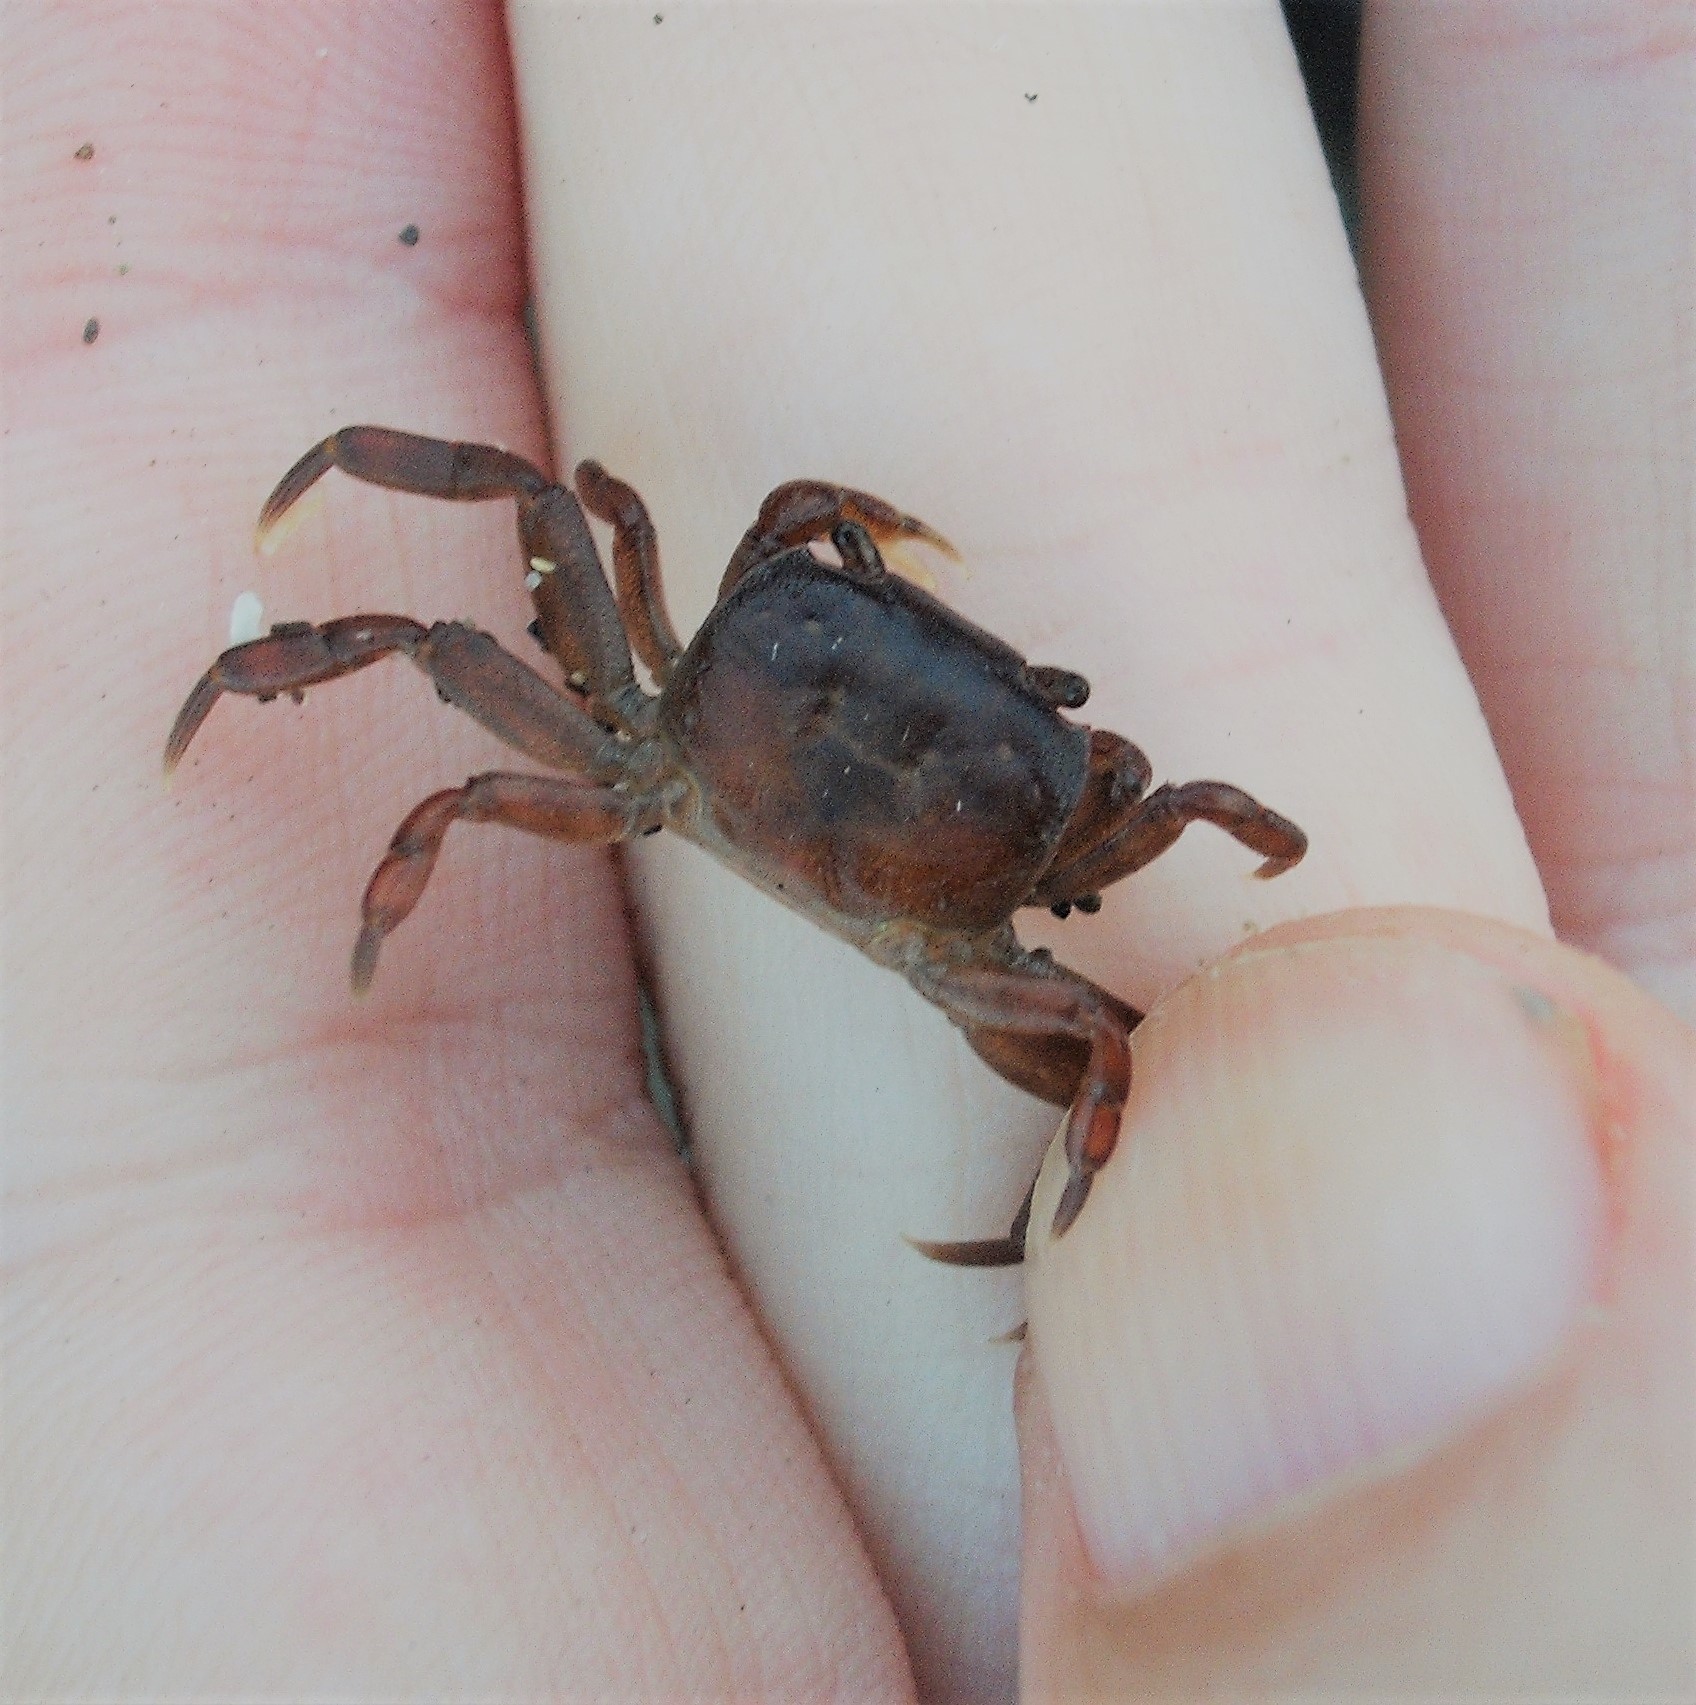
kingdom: Animalia
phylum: Arthropoda
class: Malacostraca
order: Decapoda
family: Varunidae
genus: Cyclograpsus
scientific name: Cyclograpsus lavauxi
